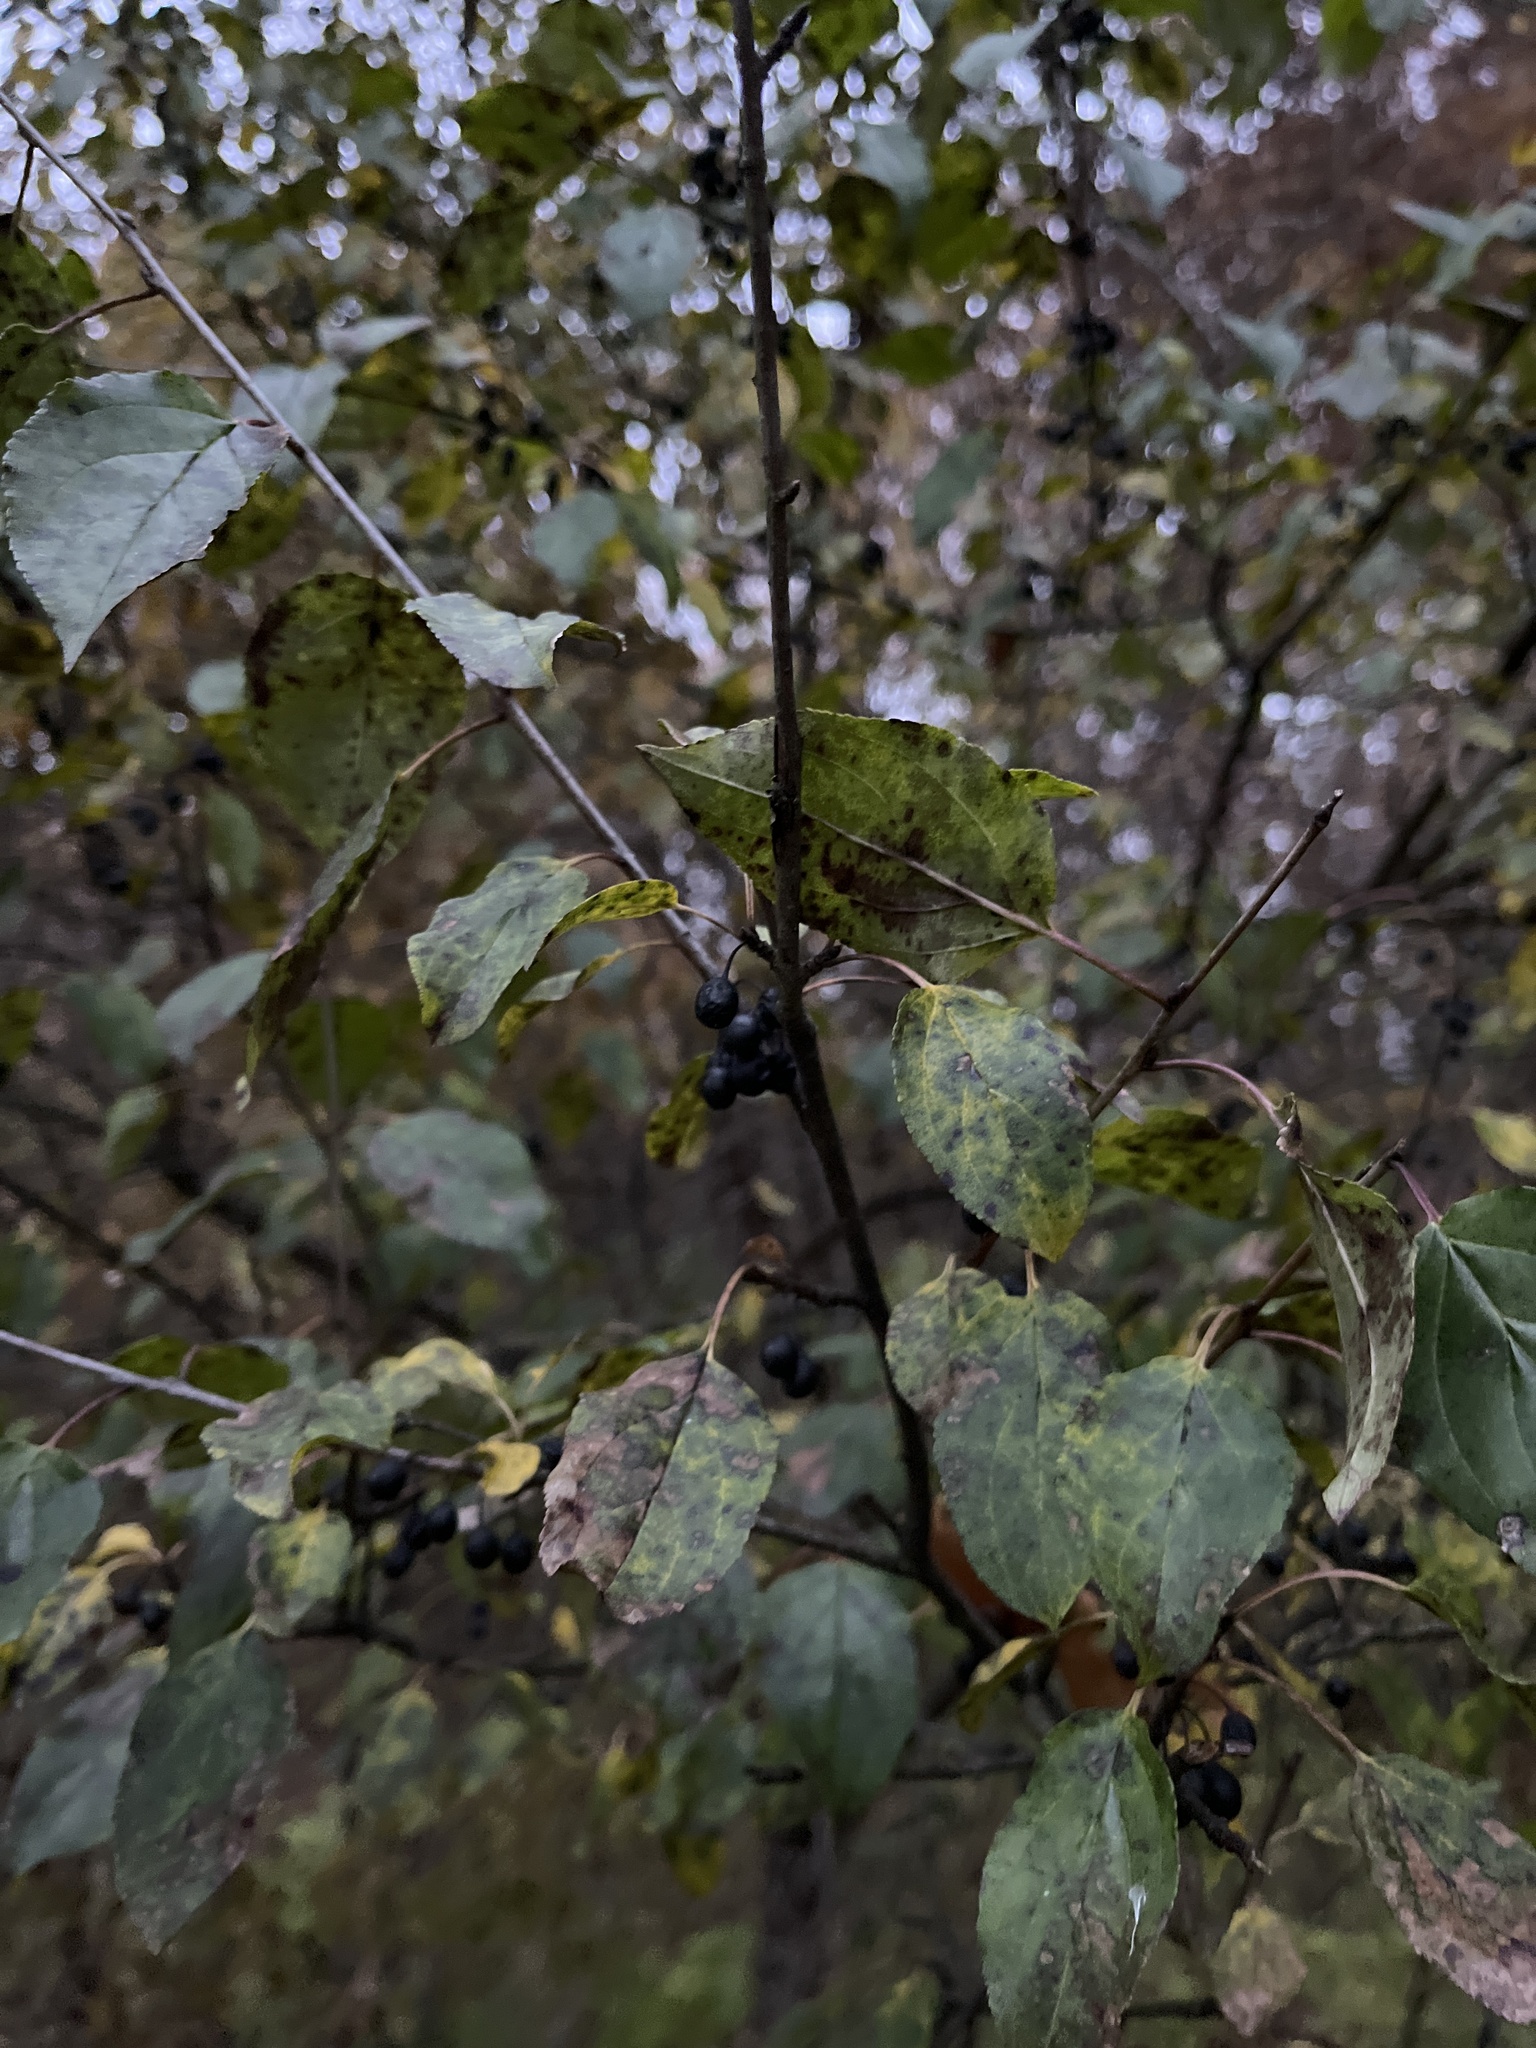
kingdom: Plantae
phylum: Tracheophyta
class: Magnoliopsida
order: Rosales
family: Rhamnaceae
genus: Rhamnus
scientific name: Rhamnus cathartica
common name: Common buckthorn
